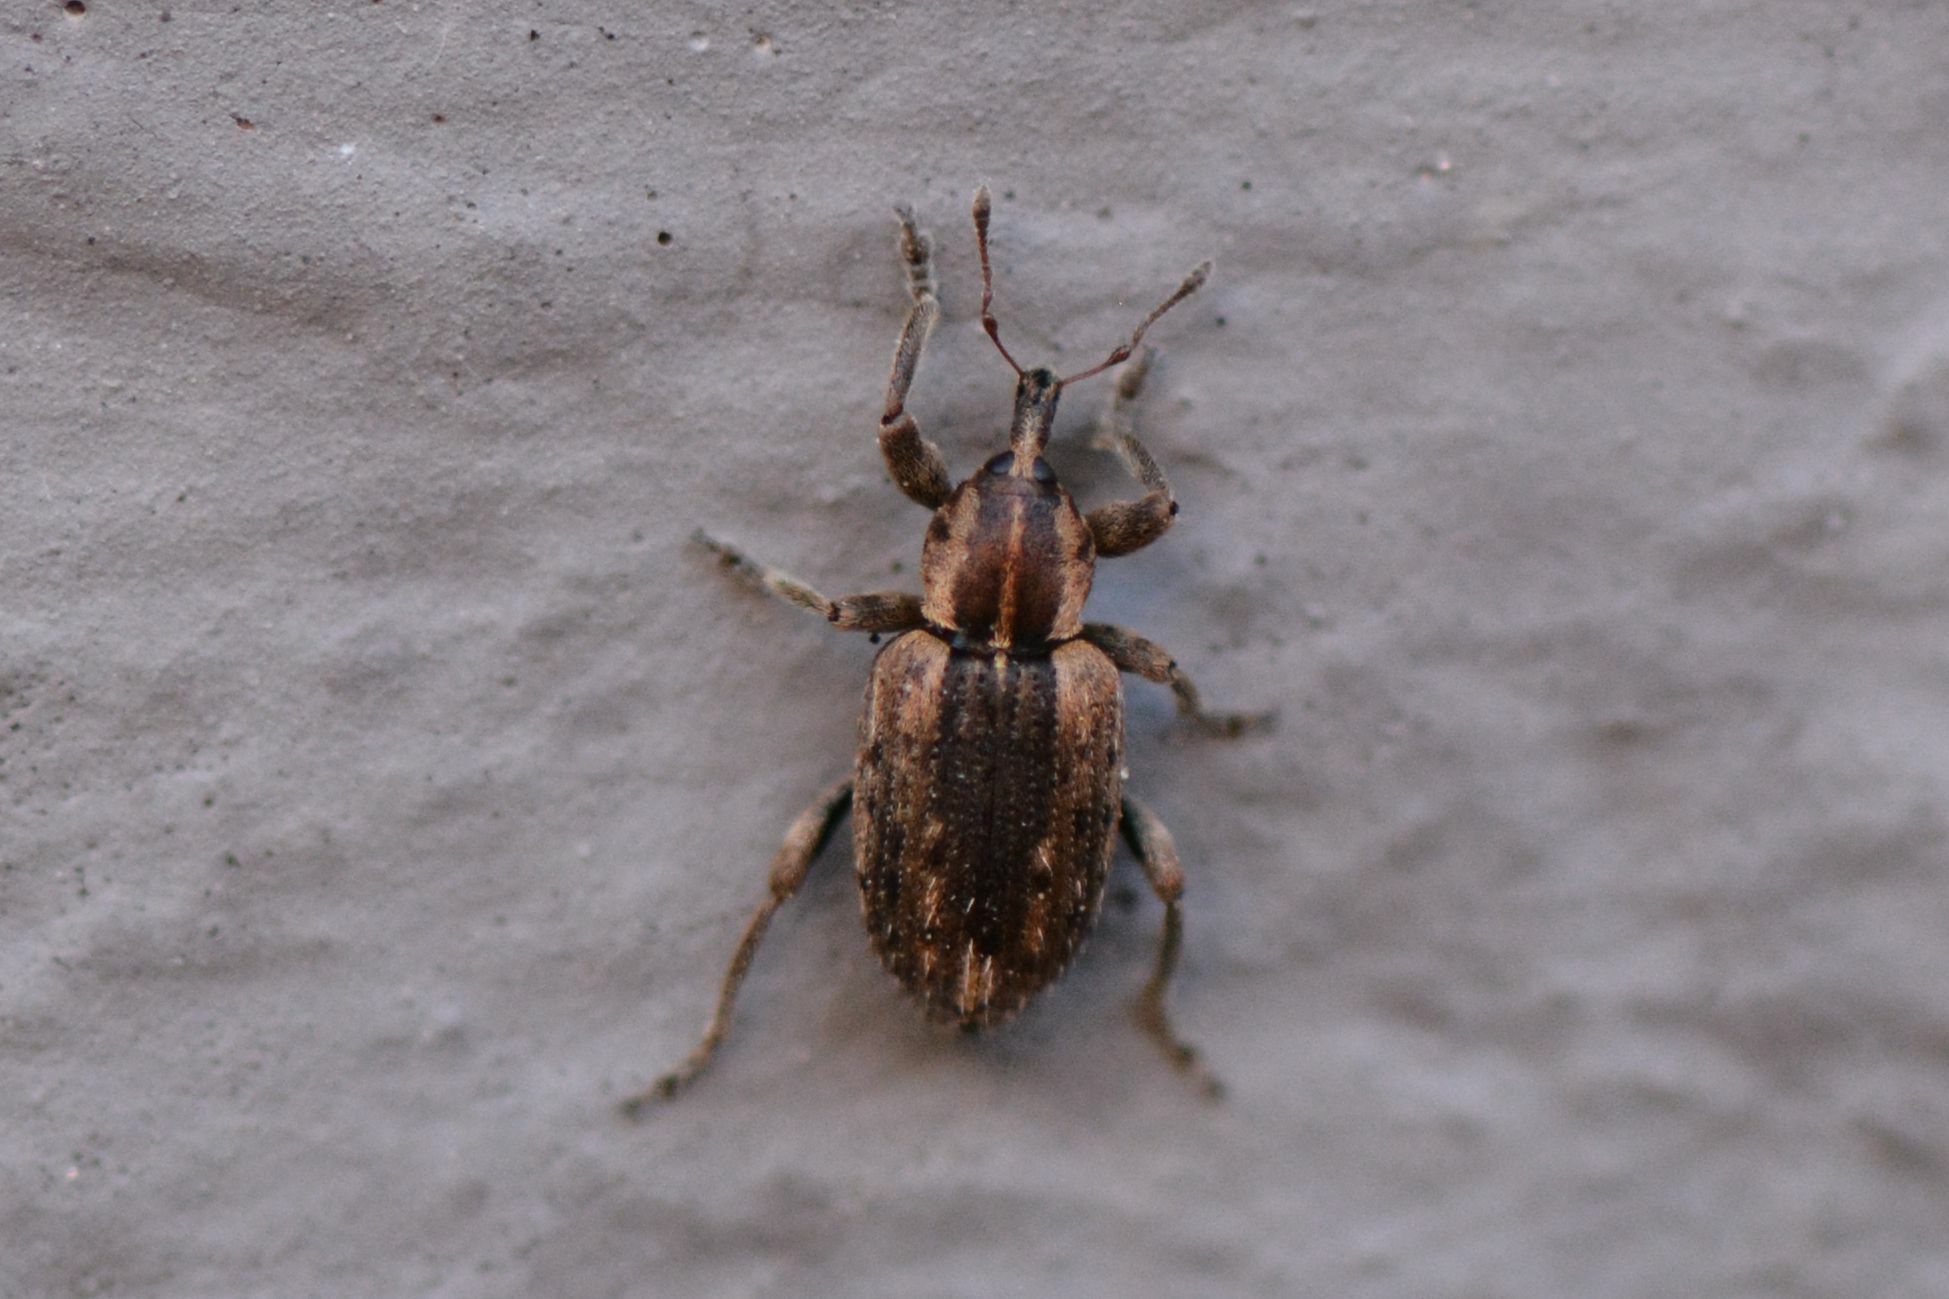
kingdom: Animalia
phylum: Arthropoda
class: Insecta
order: Coleoptera
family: Curculionidae
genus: Hypera
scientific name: Hypera postica
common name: Weevil
